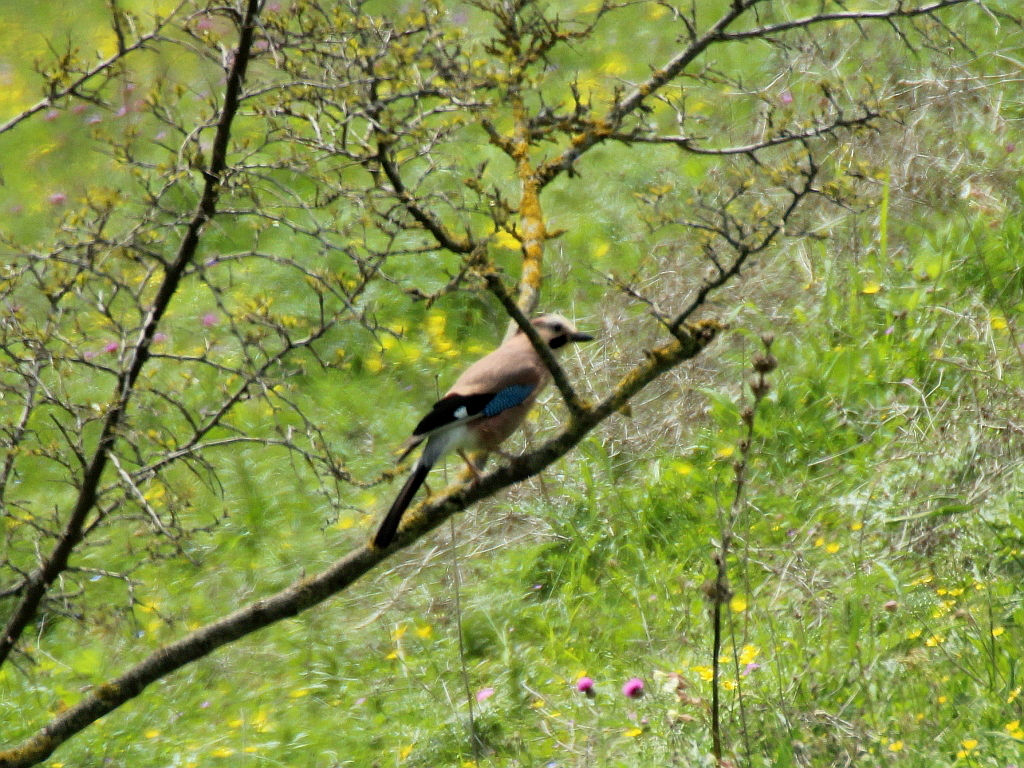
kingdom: Animalia
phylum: Chordata
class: Aves
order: Passeriformes
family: Corvidae
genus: Garrulus
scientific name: Garrulus glandarius
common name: Eurasian jay
